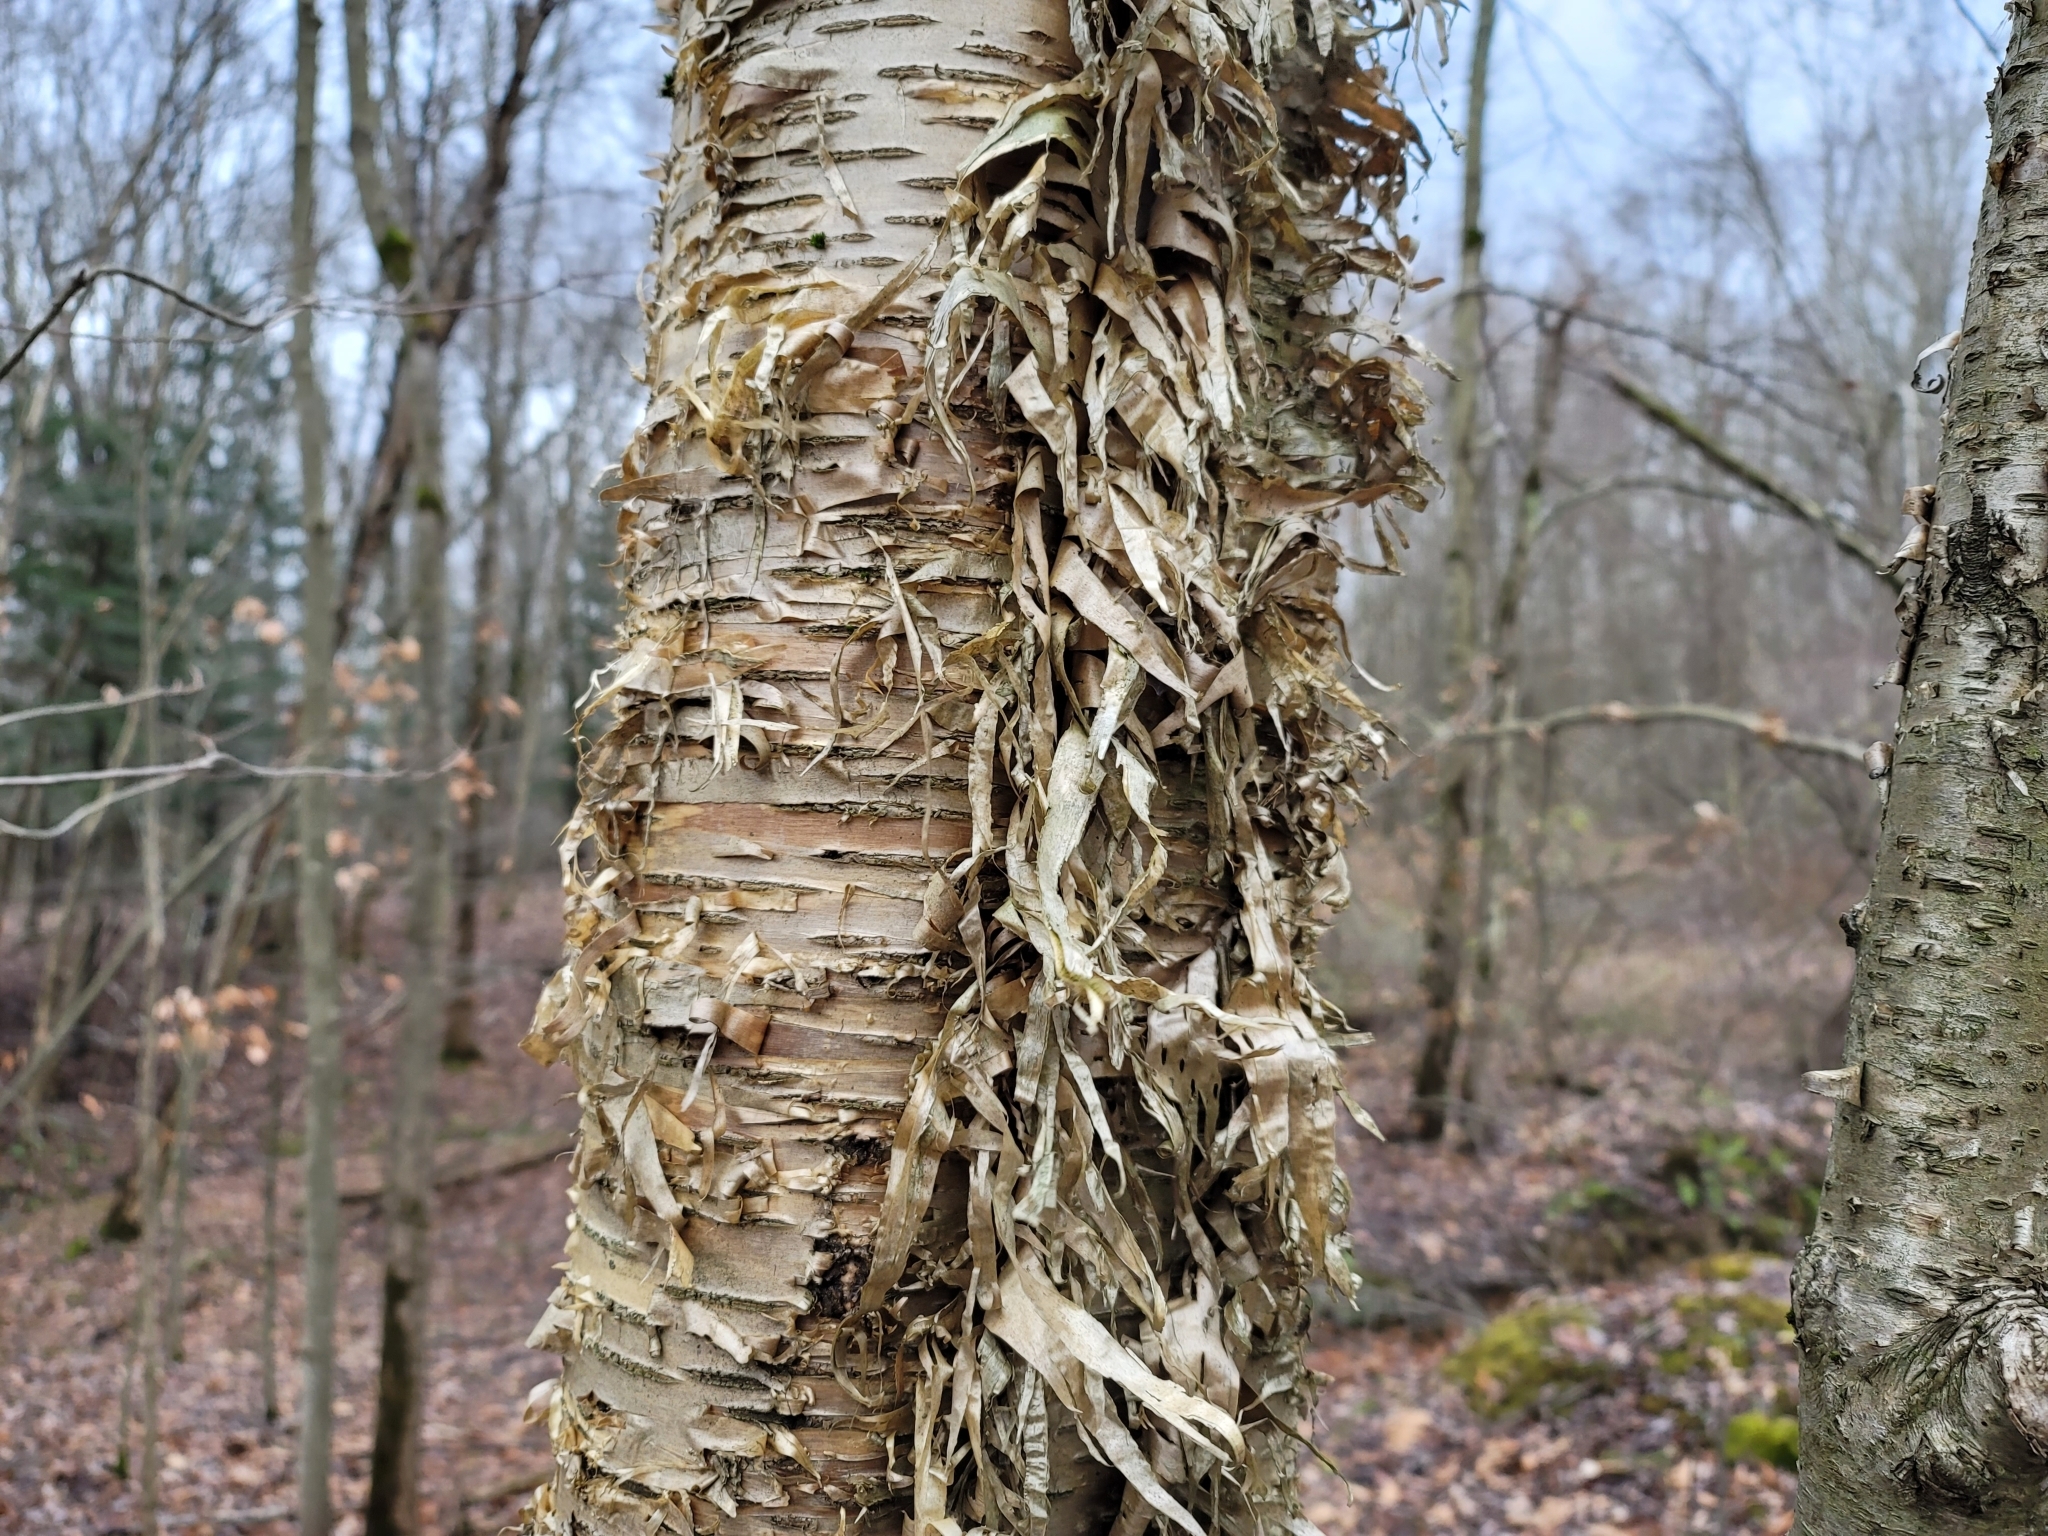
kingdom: Plantae
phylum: Tracheophyta
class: Magnoliopsida
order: Fagales
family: Betulaceae
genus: Betula
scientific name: Betula alleghaniensis
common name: Yellow birch
